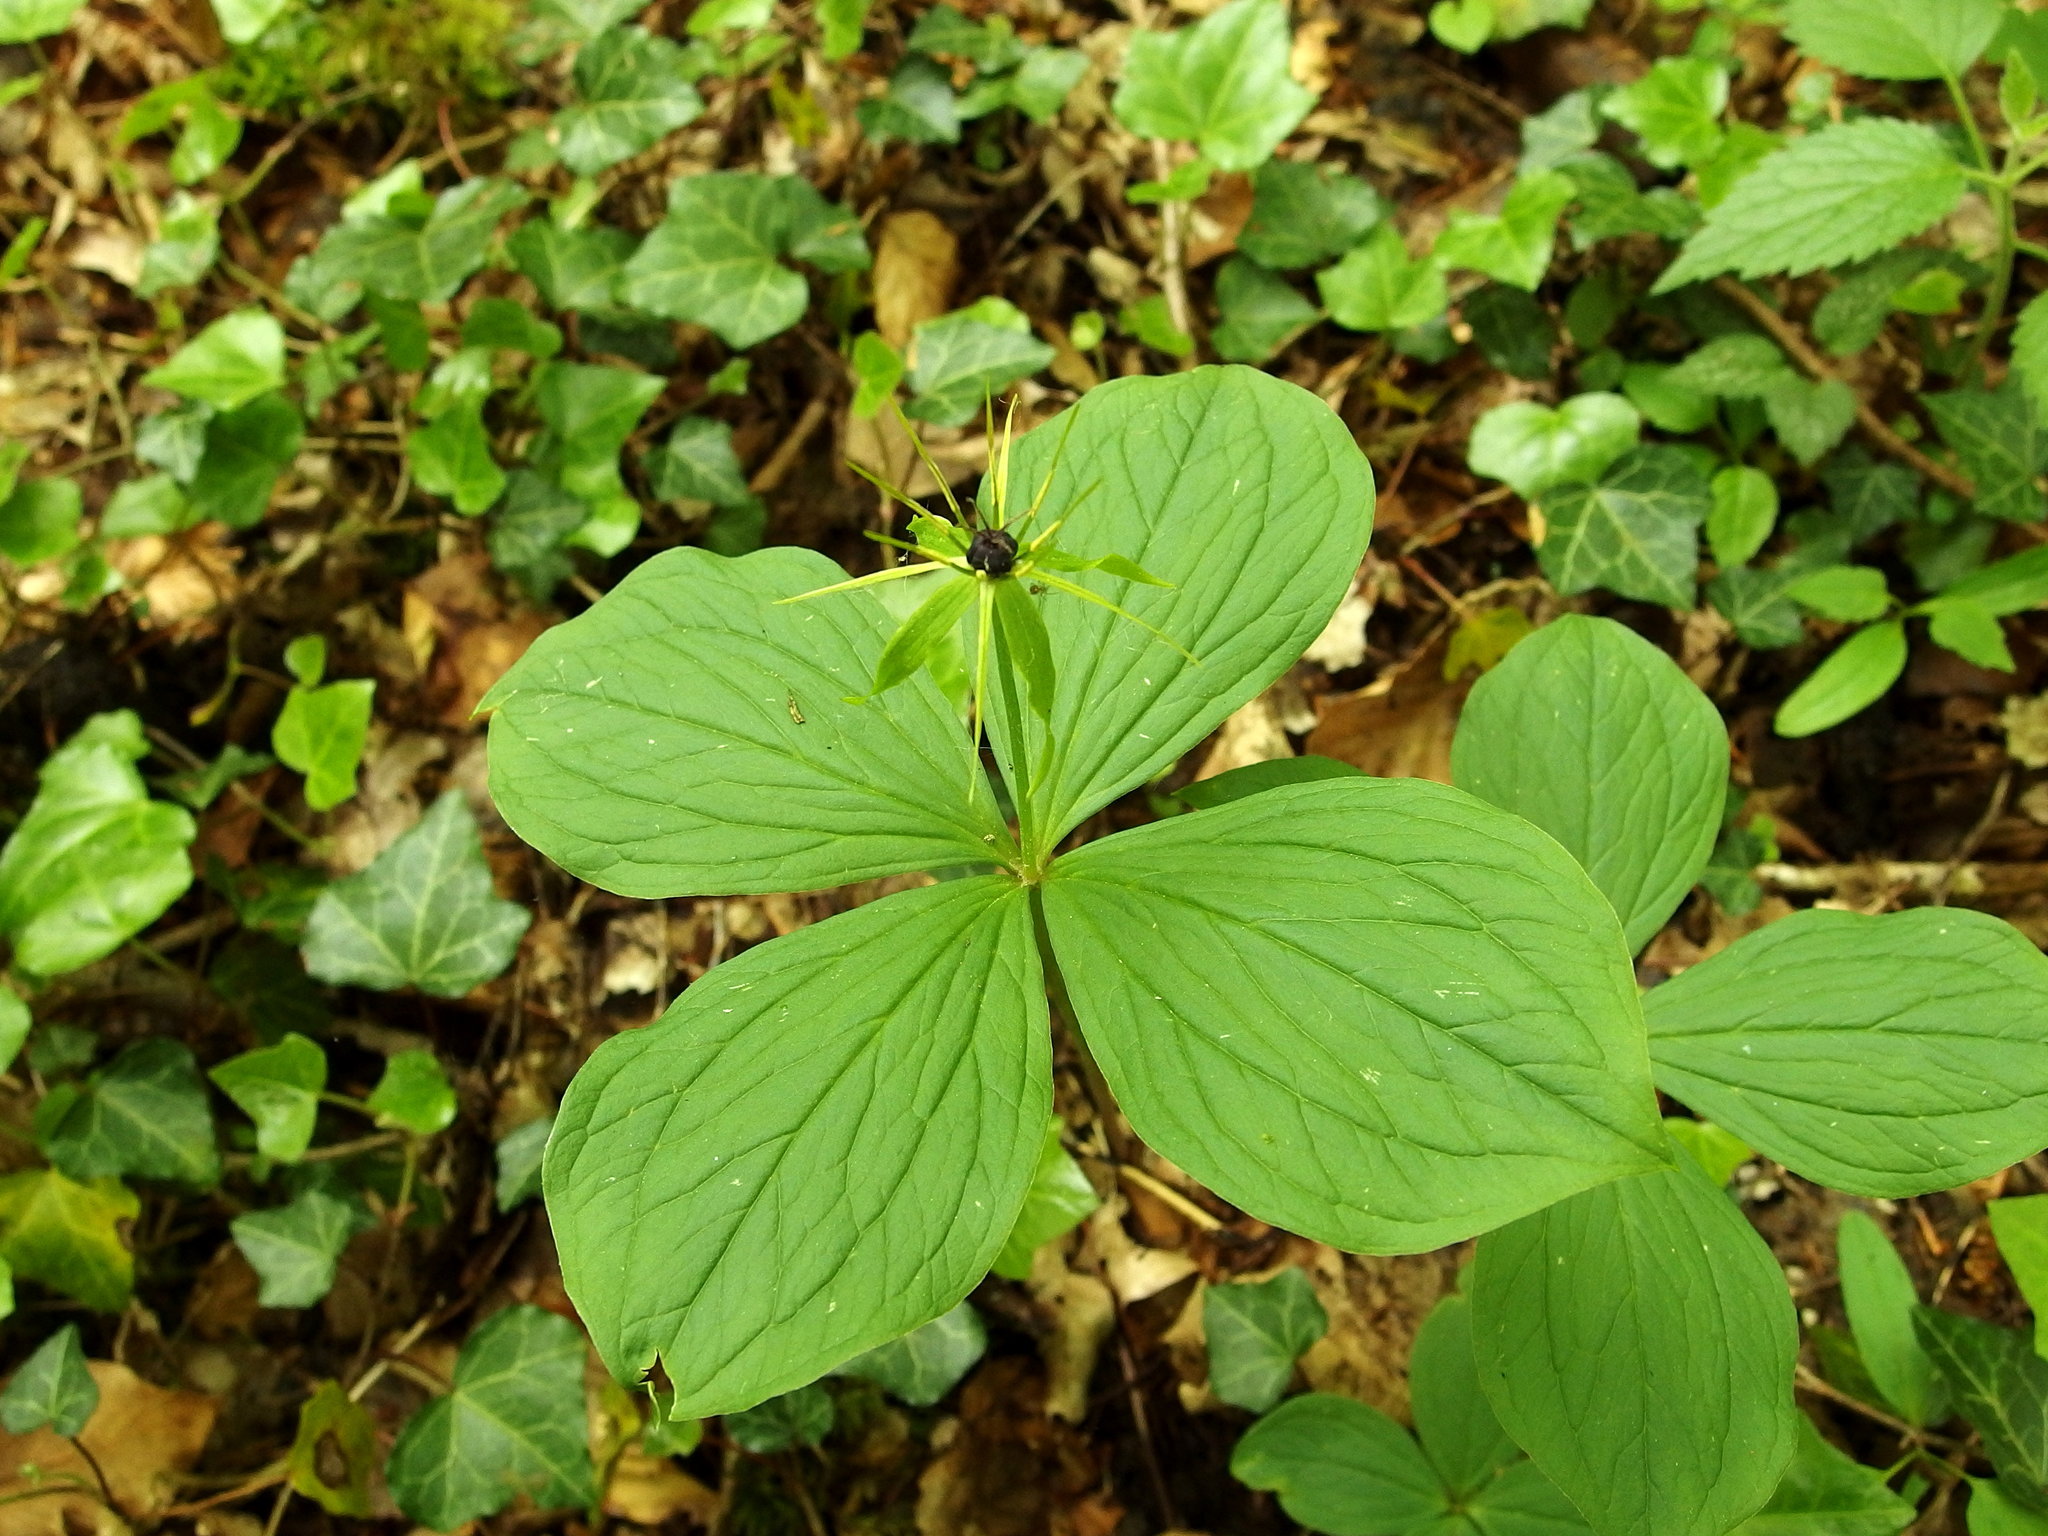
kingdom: Plantae
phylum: Tracheophyta
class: Liliopsida
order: Liliales
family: Melanthiaceae
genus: Paris
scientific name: Paris quadrifolia
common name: Herb-paris
